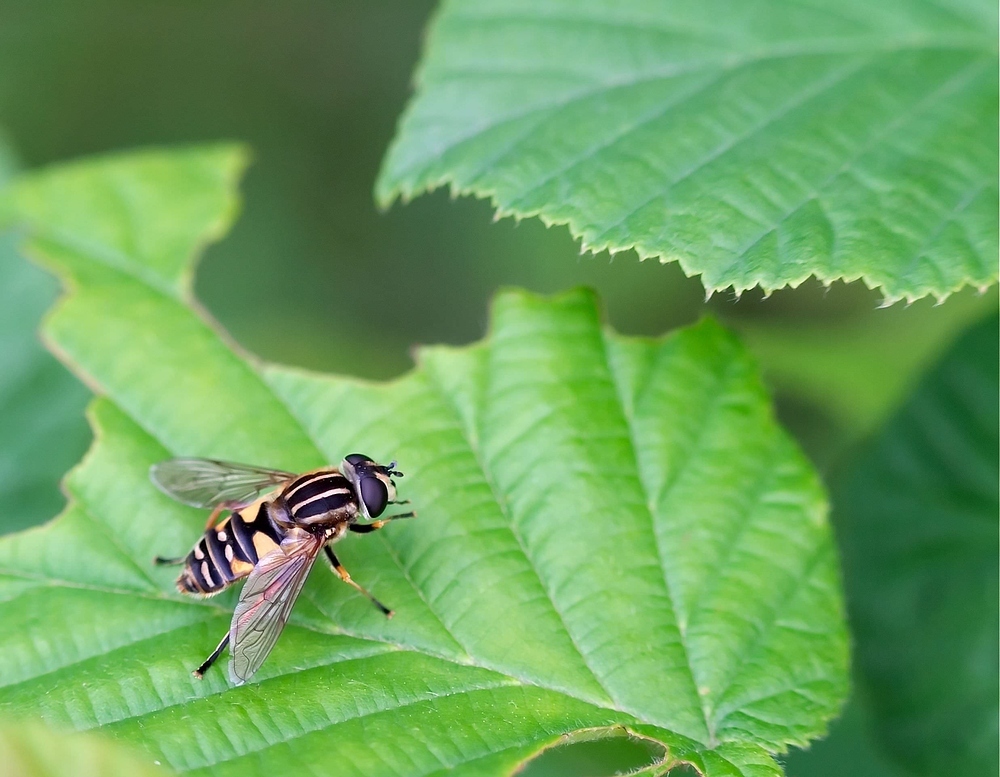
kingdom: Animalia
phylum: Arthropoda
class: Insecta
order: Diptera
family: Syrphidae
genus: Helophilus
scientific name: Helophilus pendulus
